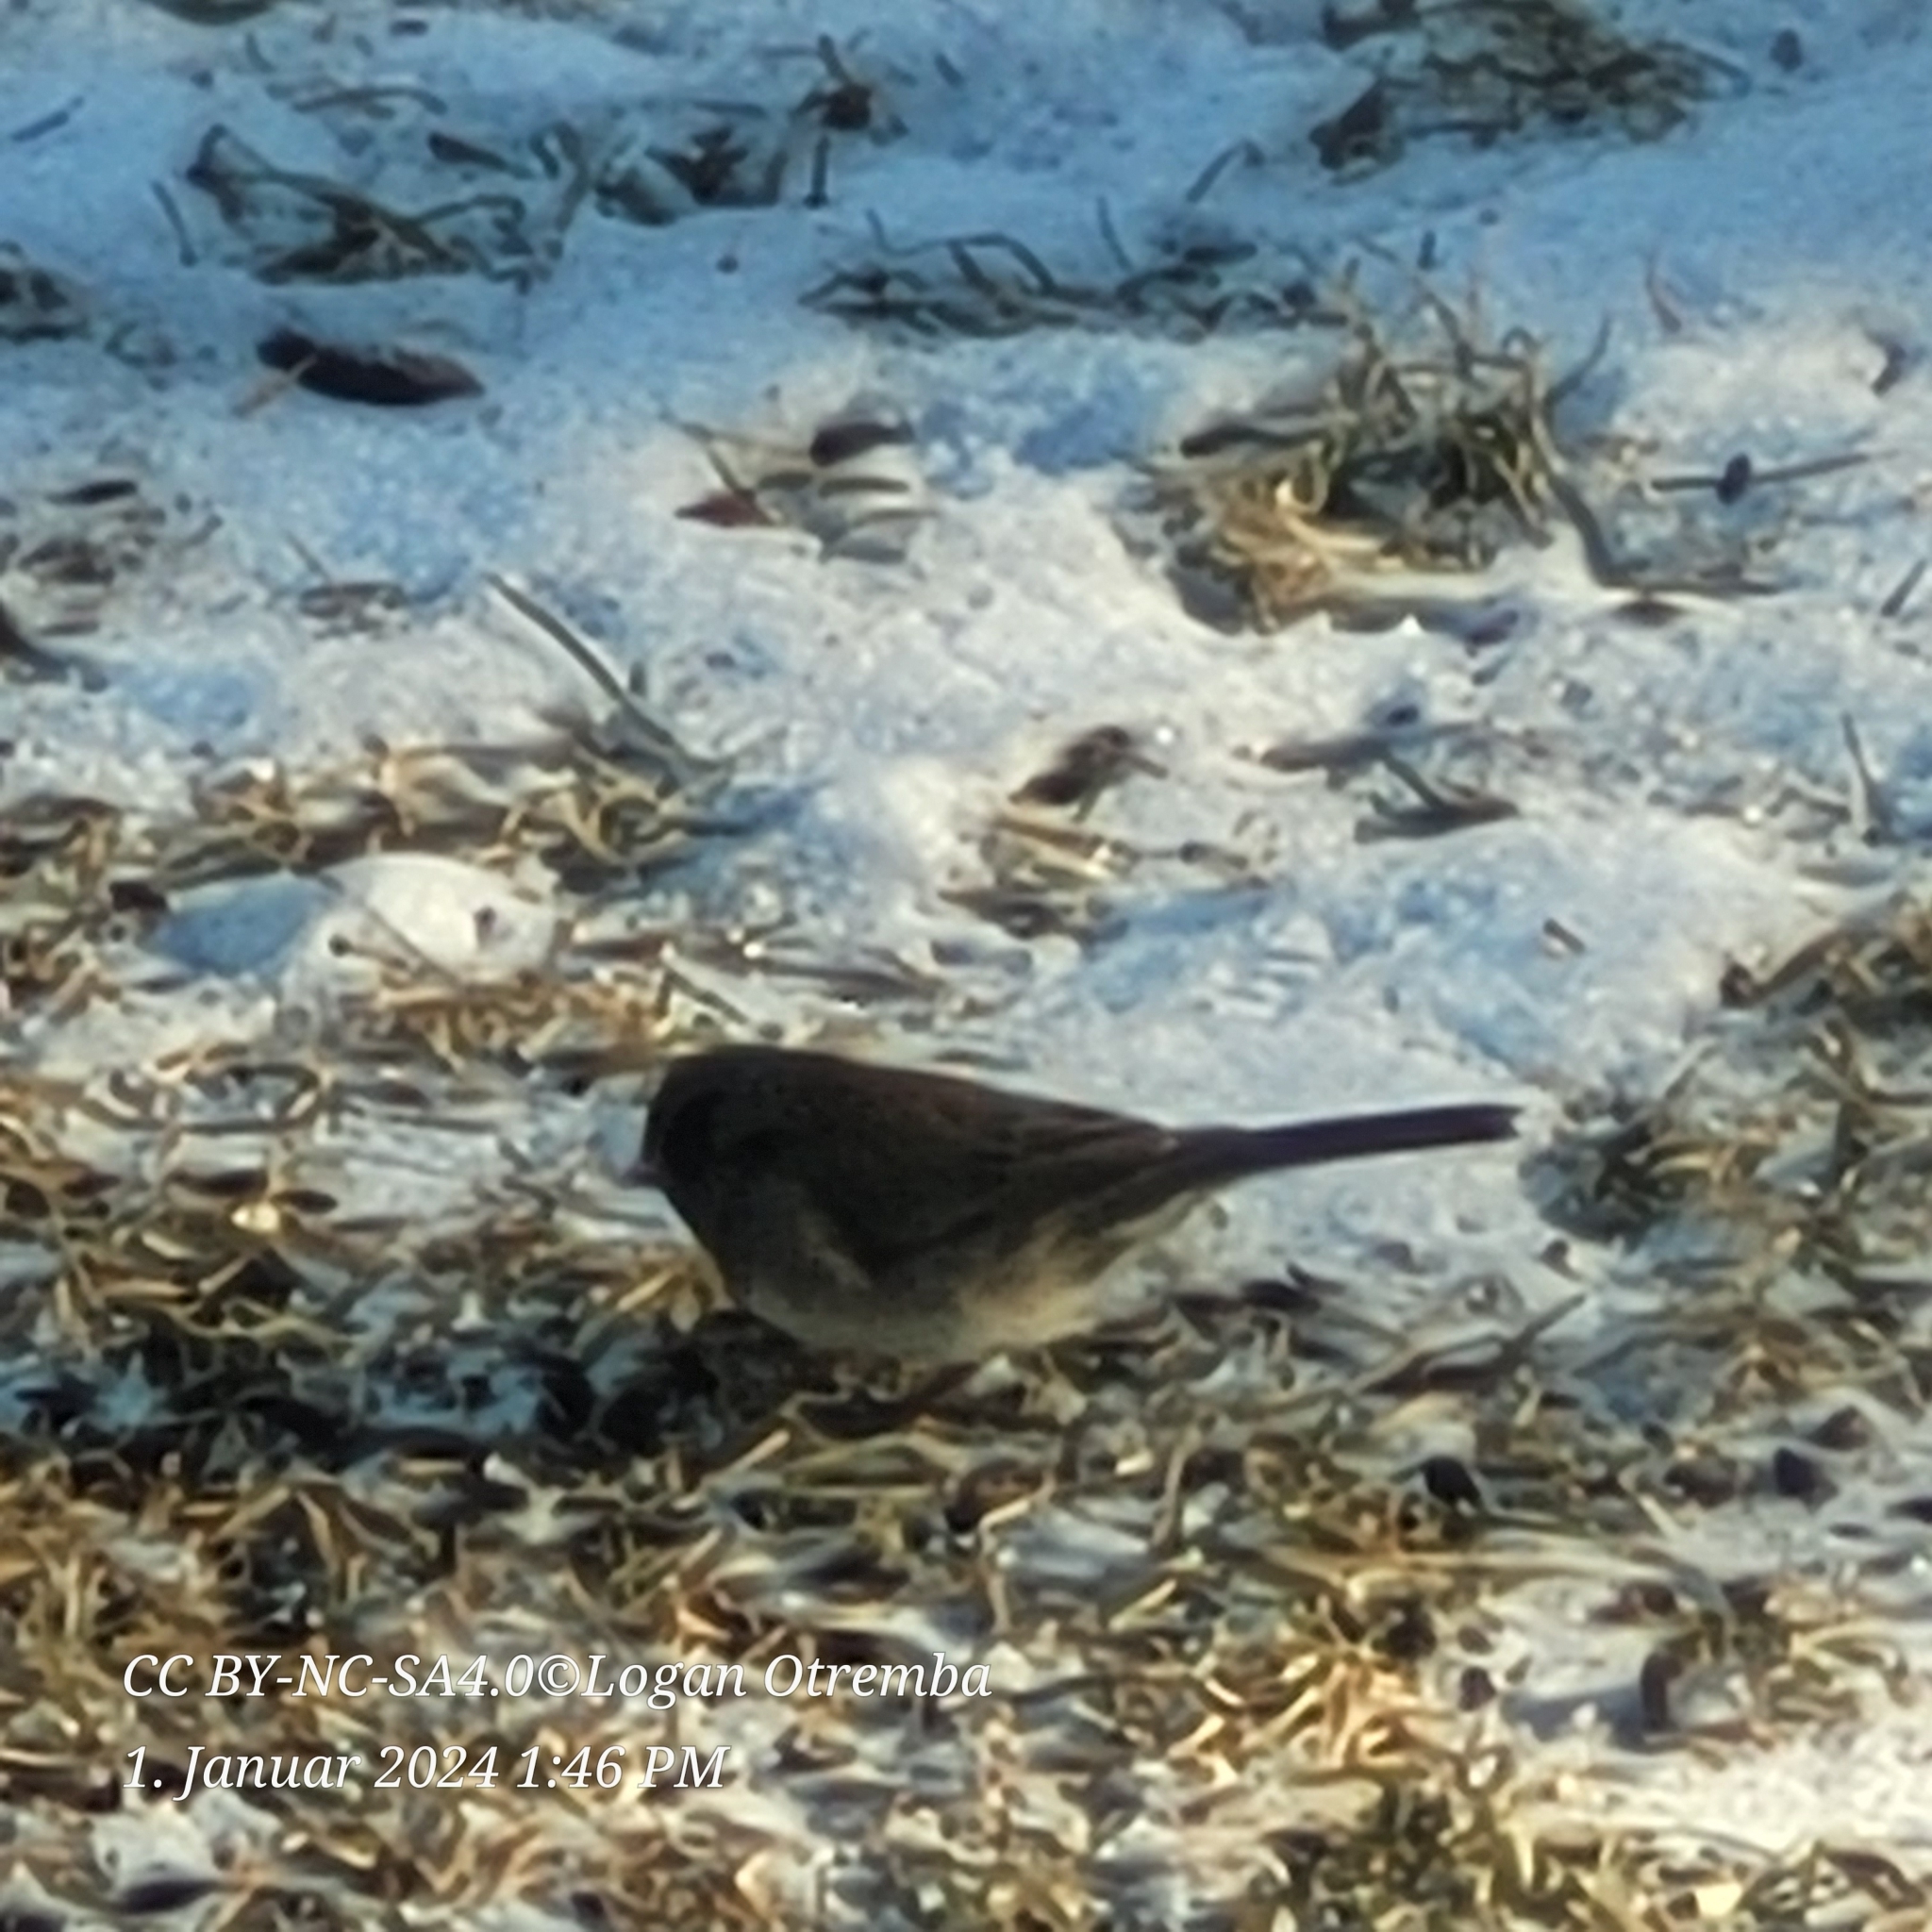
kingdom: Animalia
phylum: Chordata
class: Aves
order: Passeriformes
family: Passerellidae
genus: Junco
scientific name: Junco hyemalis
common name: Dark-eyed junco
